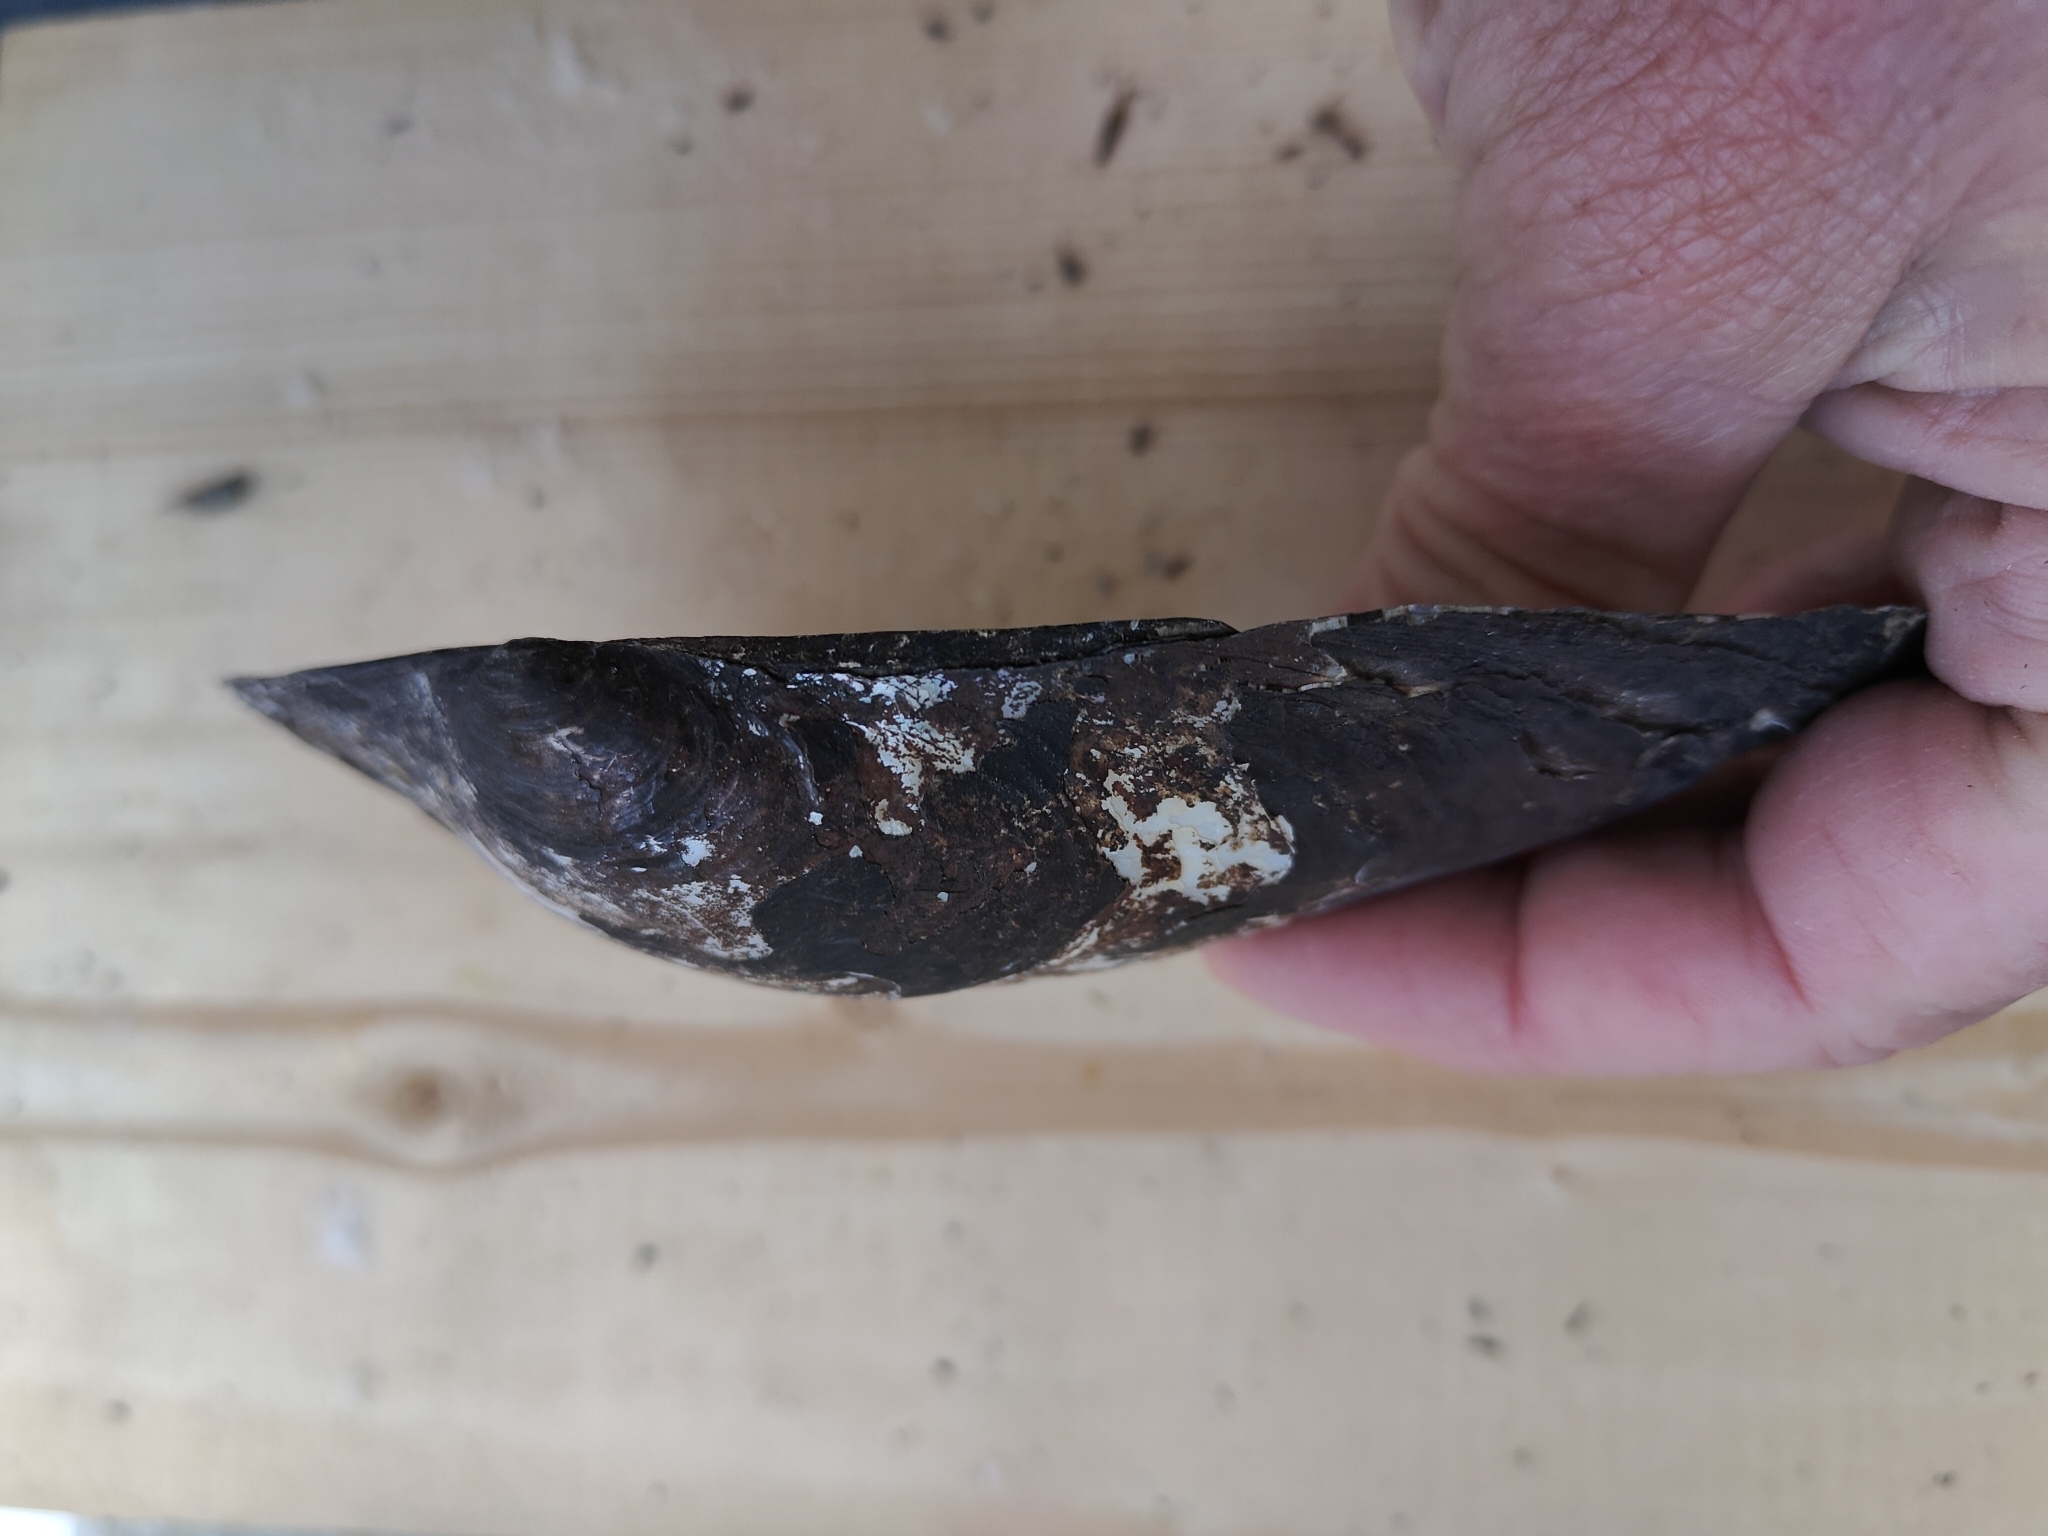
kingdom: Animalia
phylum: Mollusca
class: Bivalvia
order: Unionida
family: Unionidae
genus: Pyganodon
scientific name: Pyganodon grandis
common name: Giant floater
